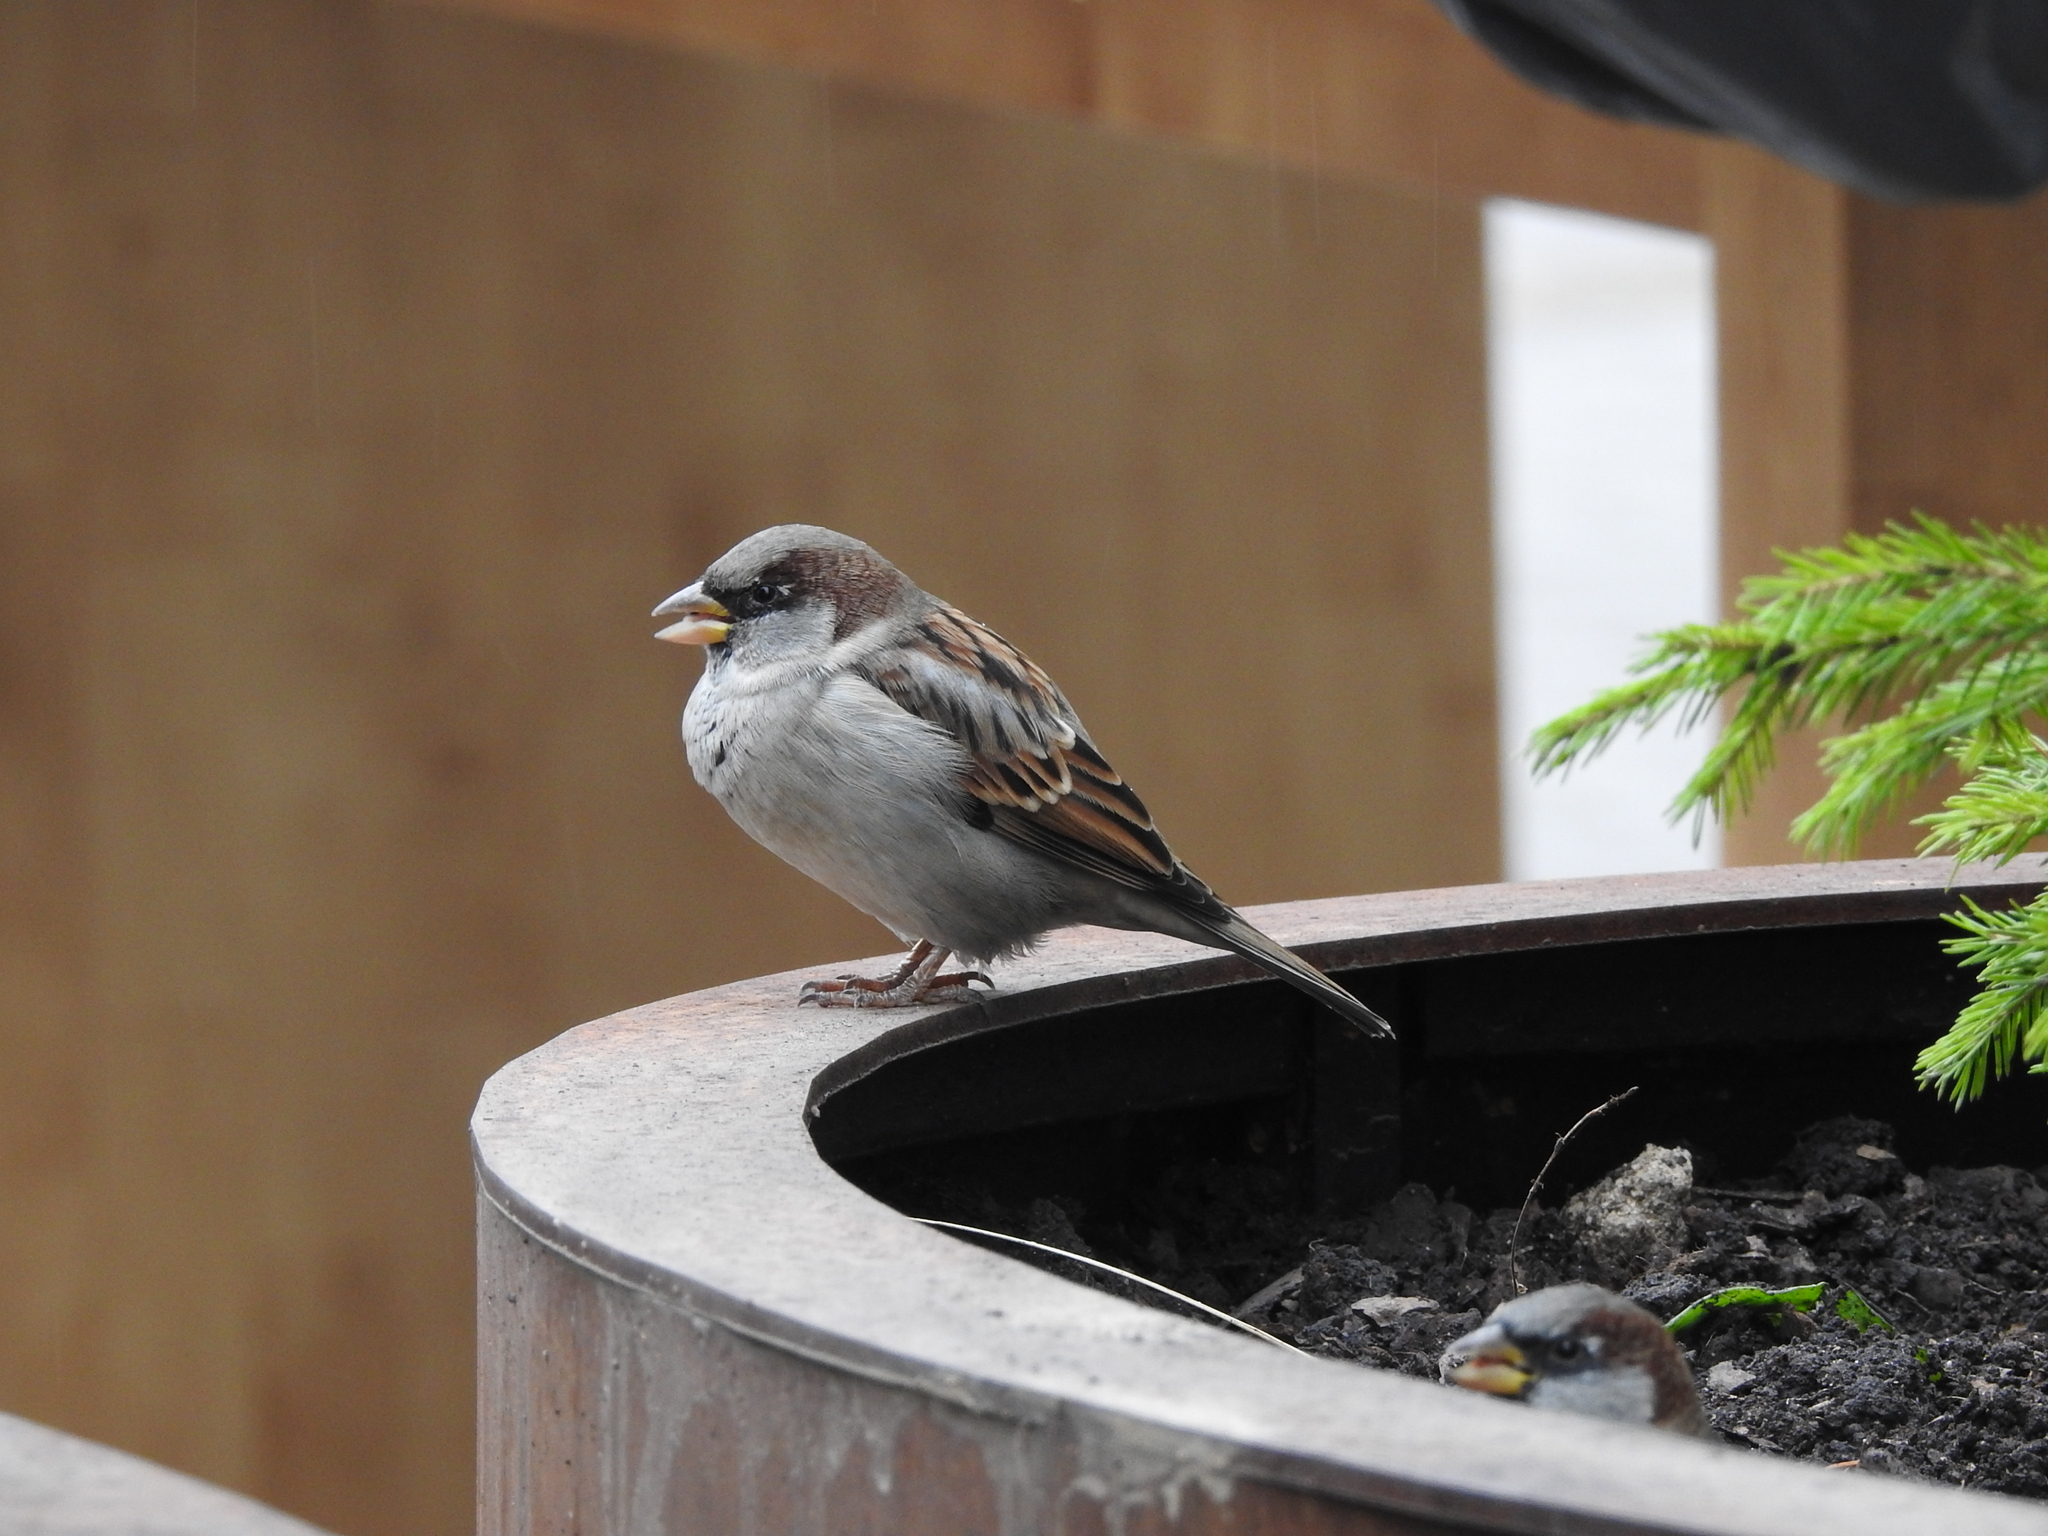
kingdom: Animalia
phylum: Chordata
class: Aves
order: Passeriformes
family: Passeridae
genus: Passer
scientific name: Passer domesticus
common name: House sparrow
